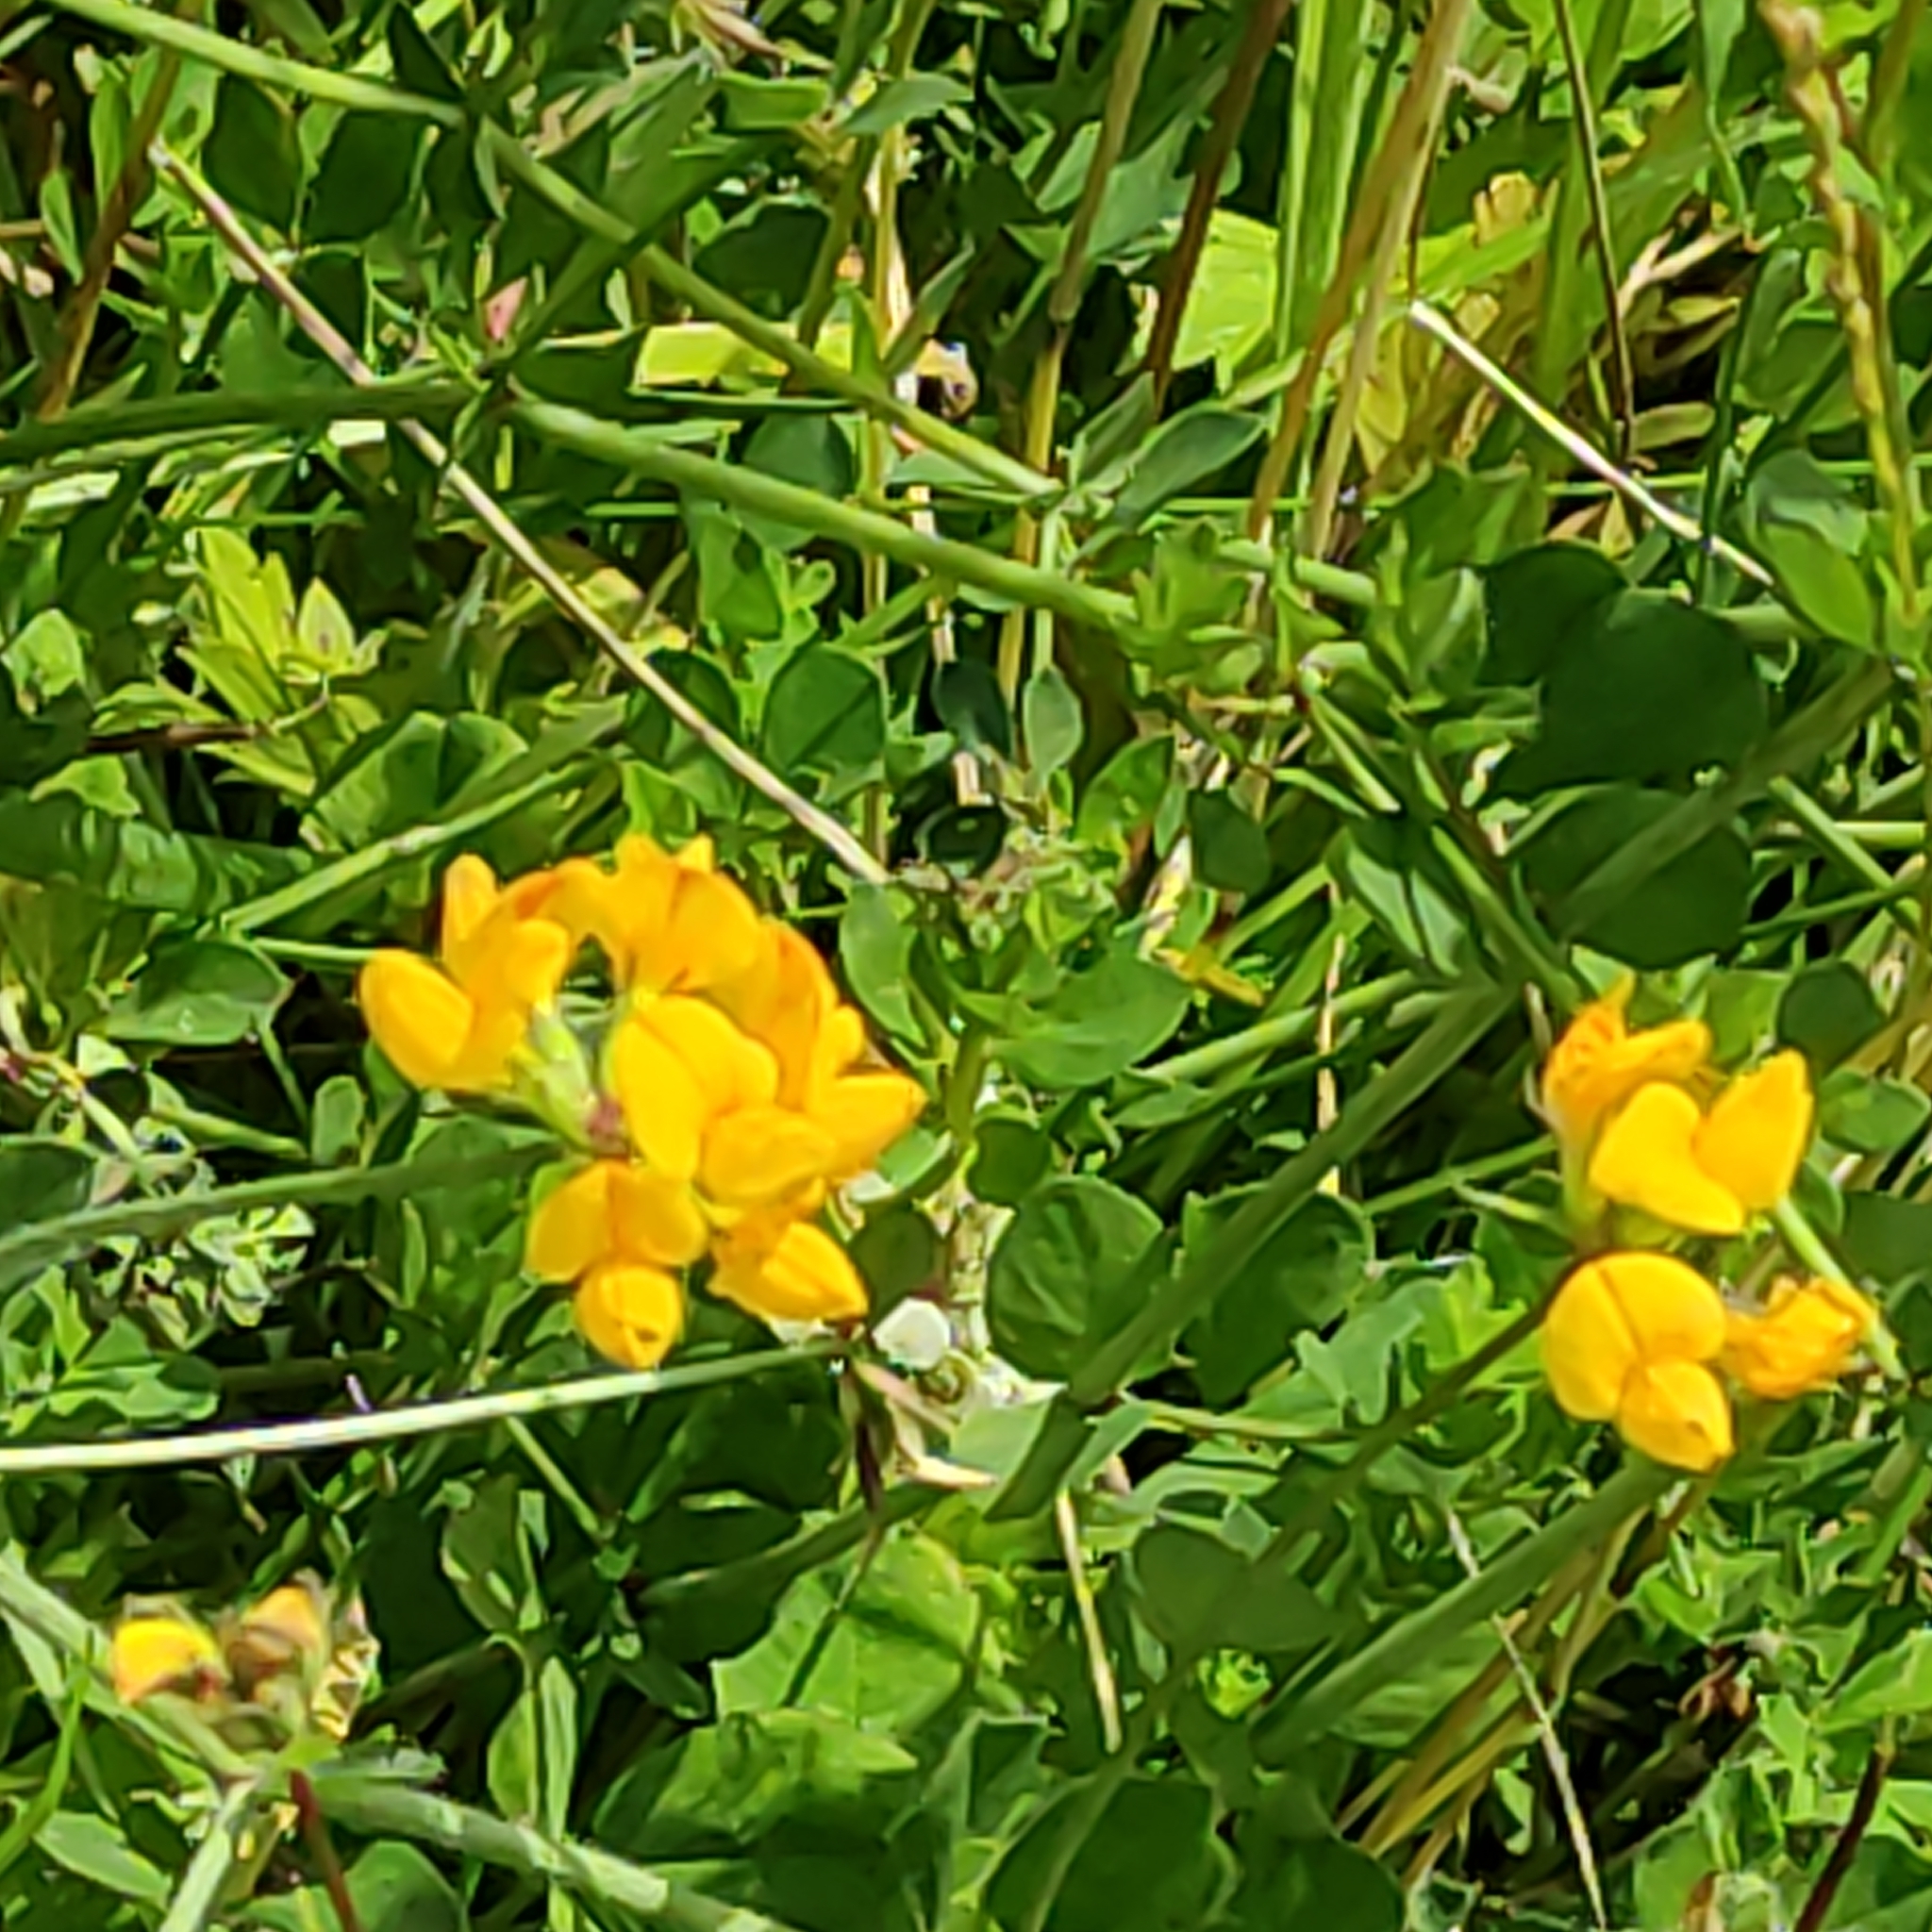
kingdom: Plantae
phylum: Tracheophyta
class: Magnoliopsida
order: Fabales
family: Fabaceae
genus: Lotus
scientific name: Lotus pedunculatus
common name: Greater birdsfoot-trefoil
